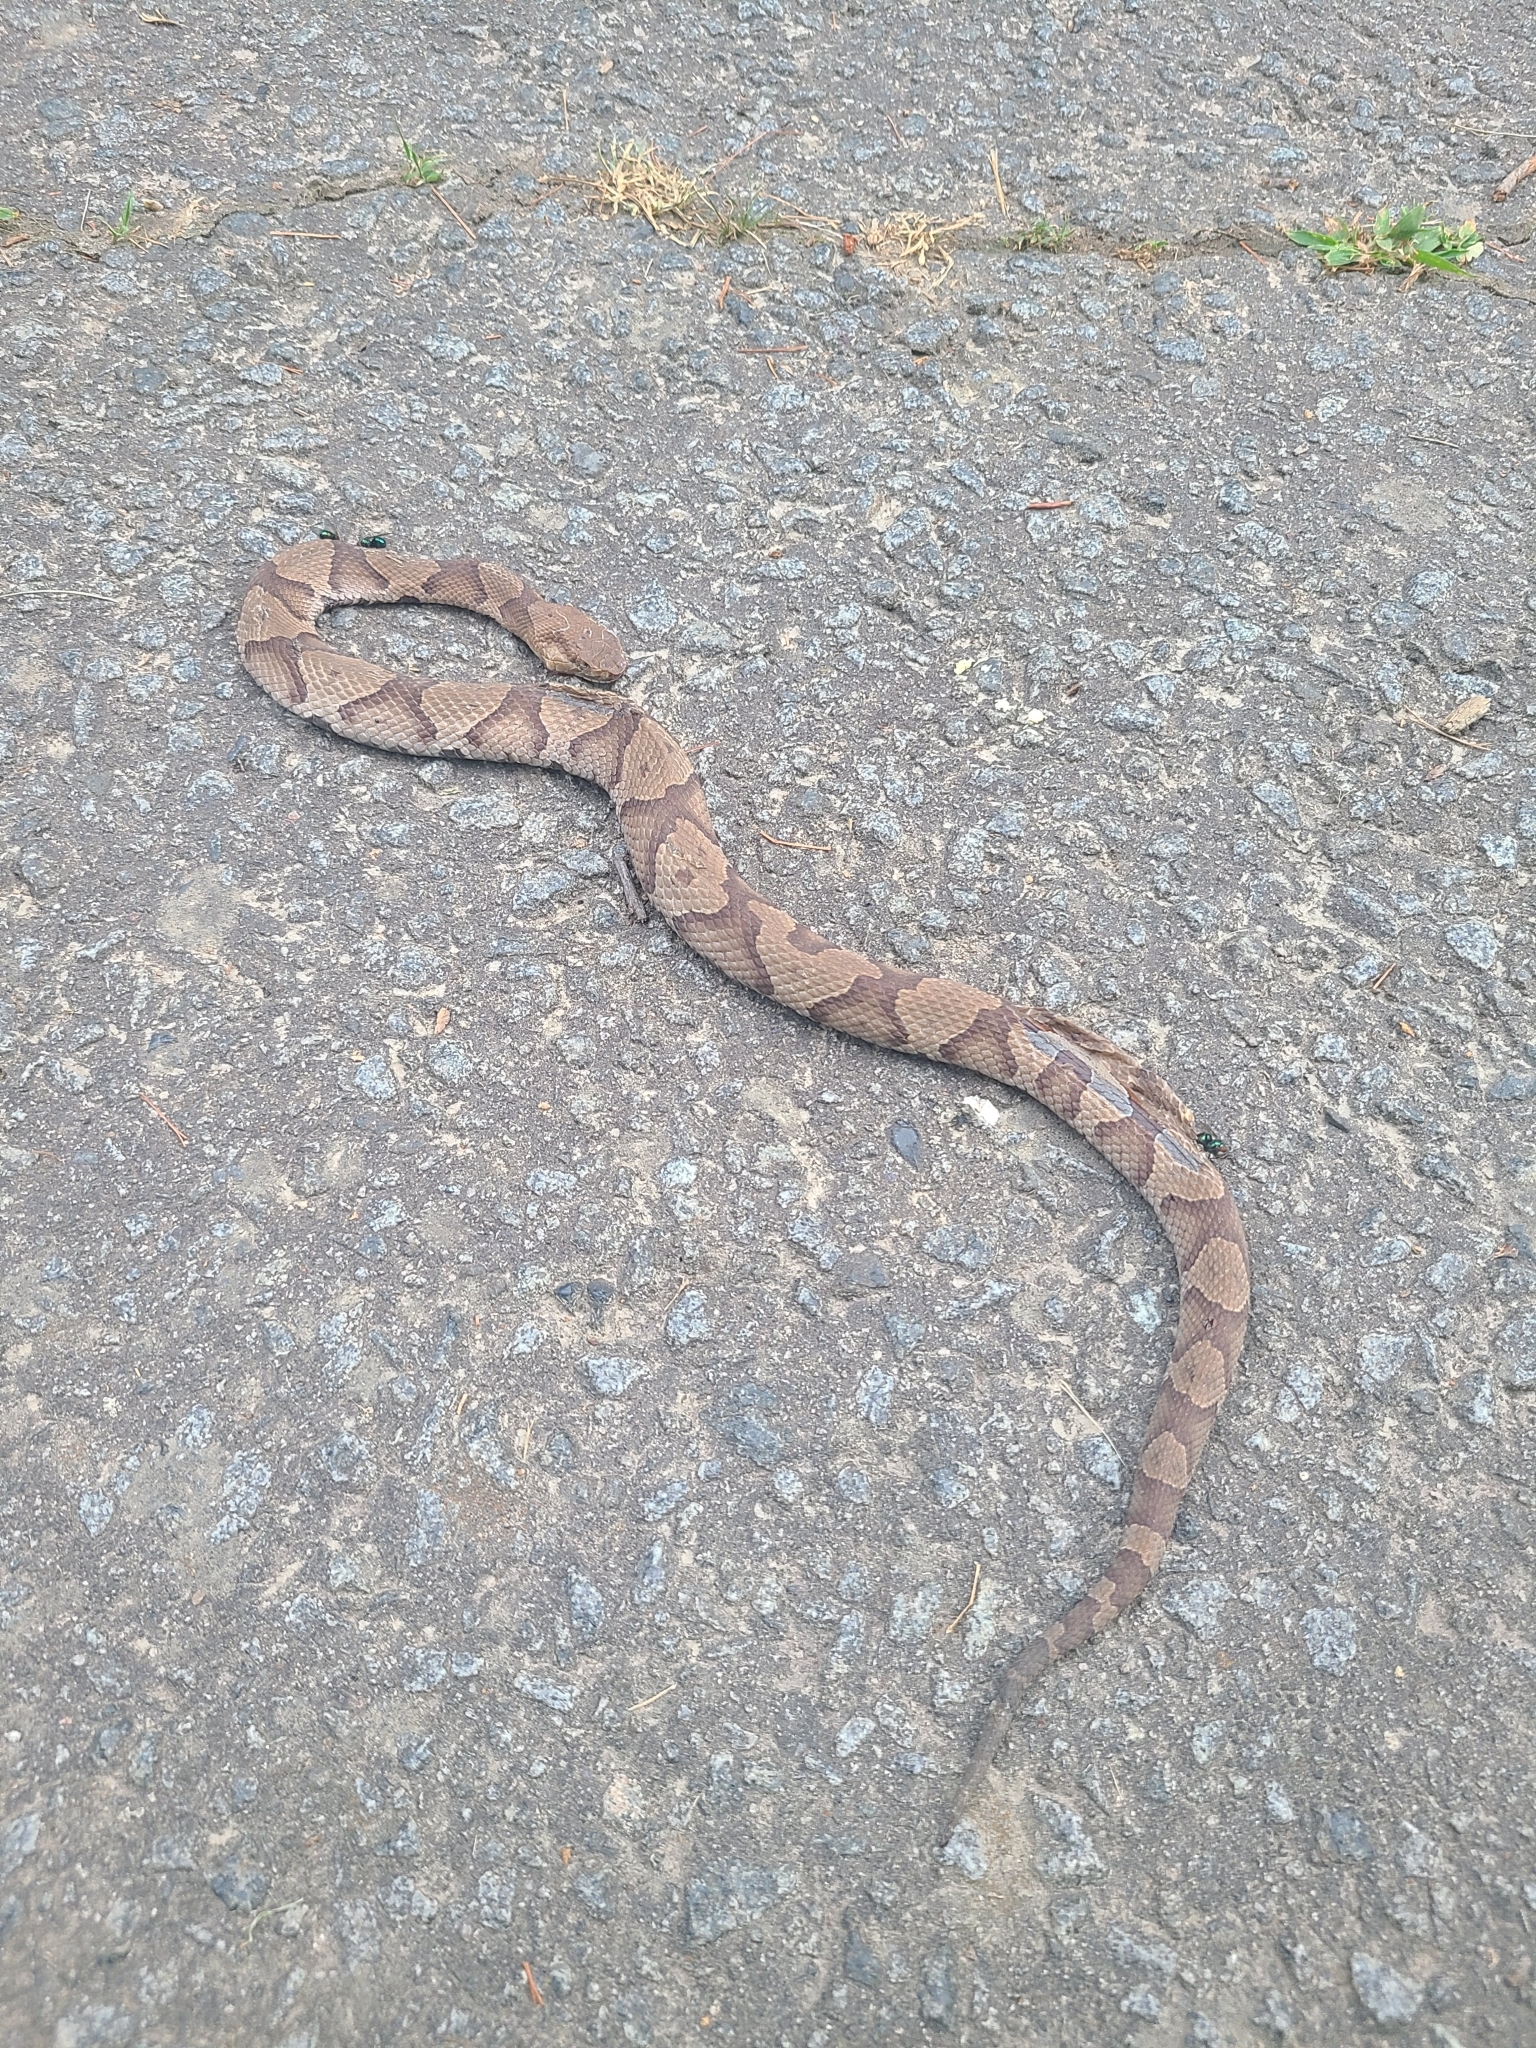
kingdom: Animalia
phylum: Chordata
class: Squamata
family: Viperidae
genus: Agkistrodon
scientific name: Agkistrodon contortrix
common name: Northern copperhead
